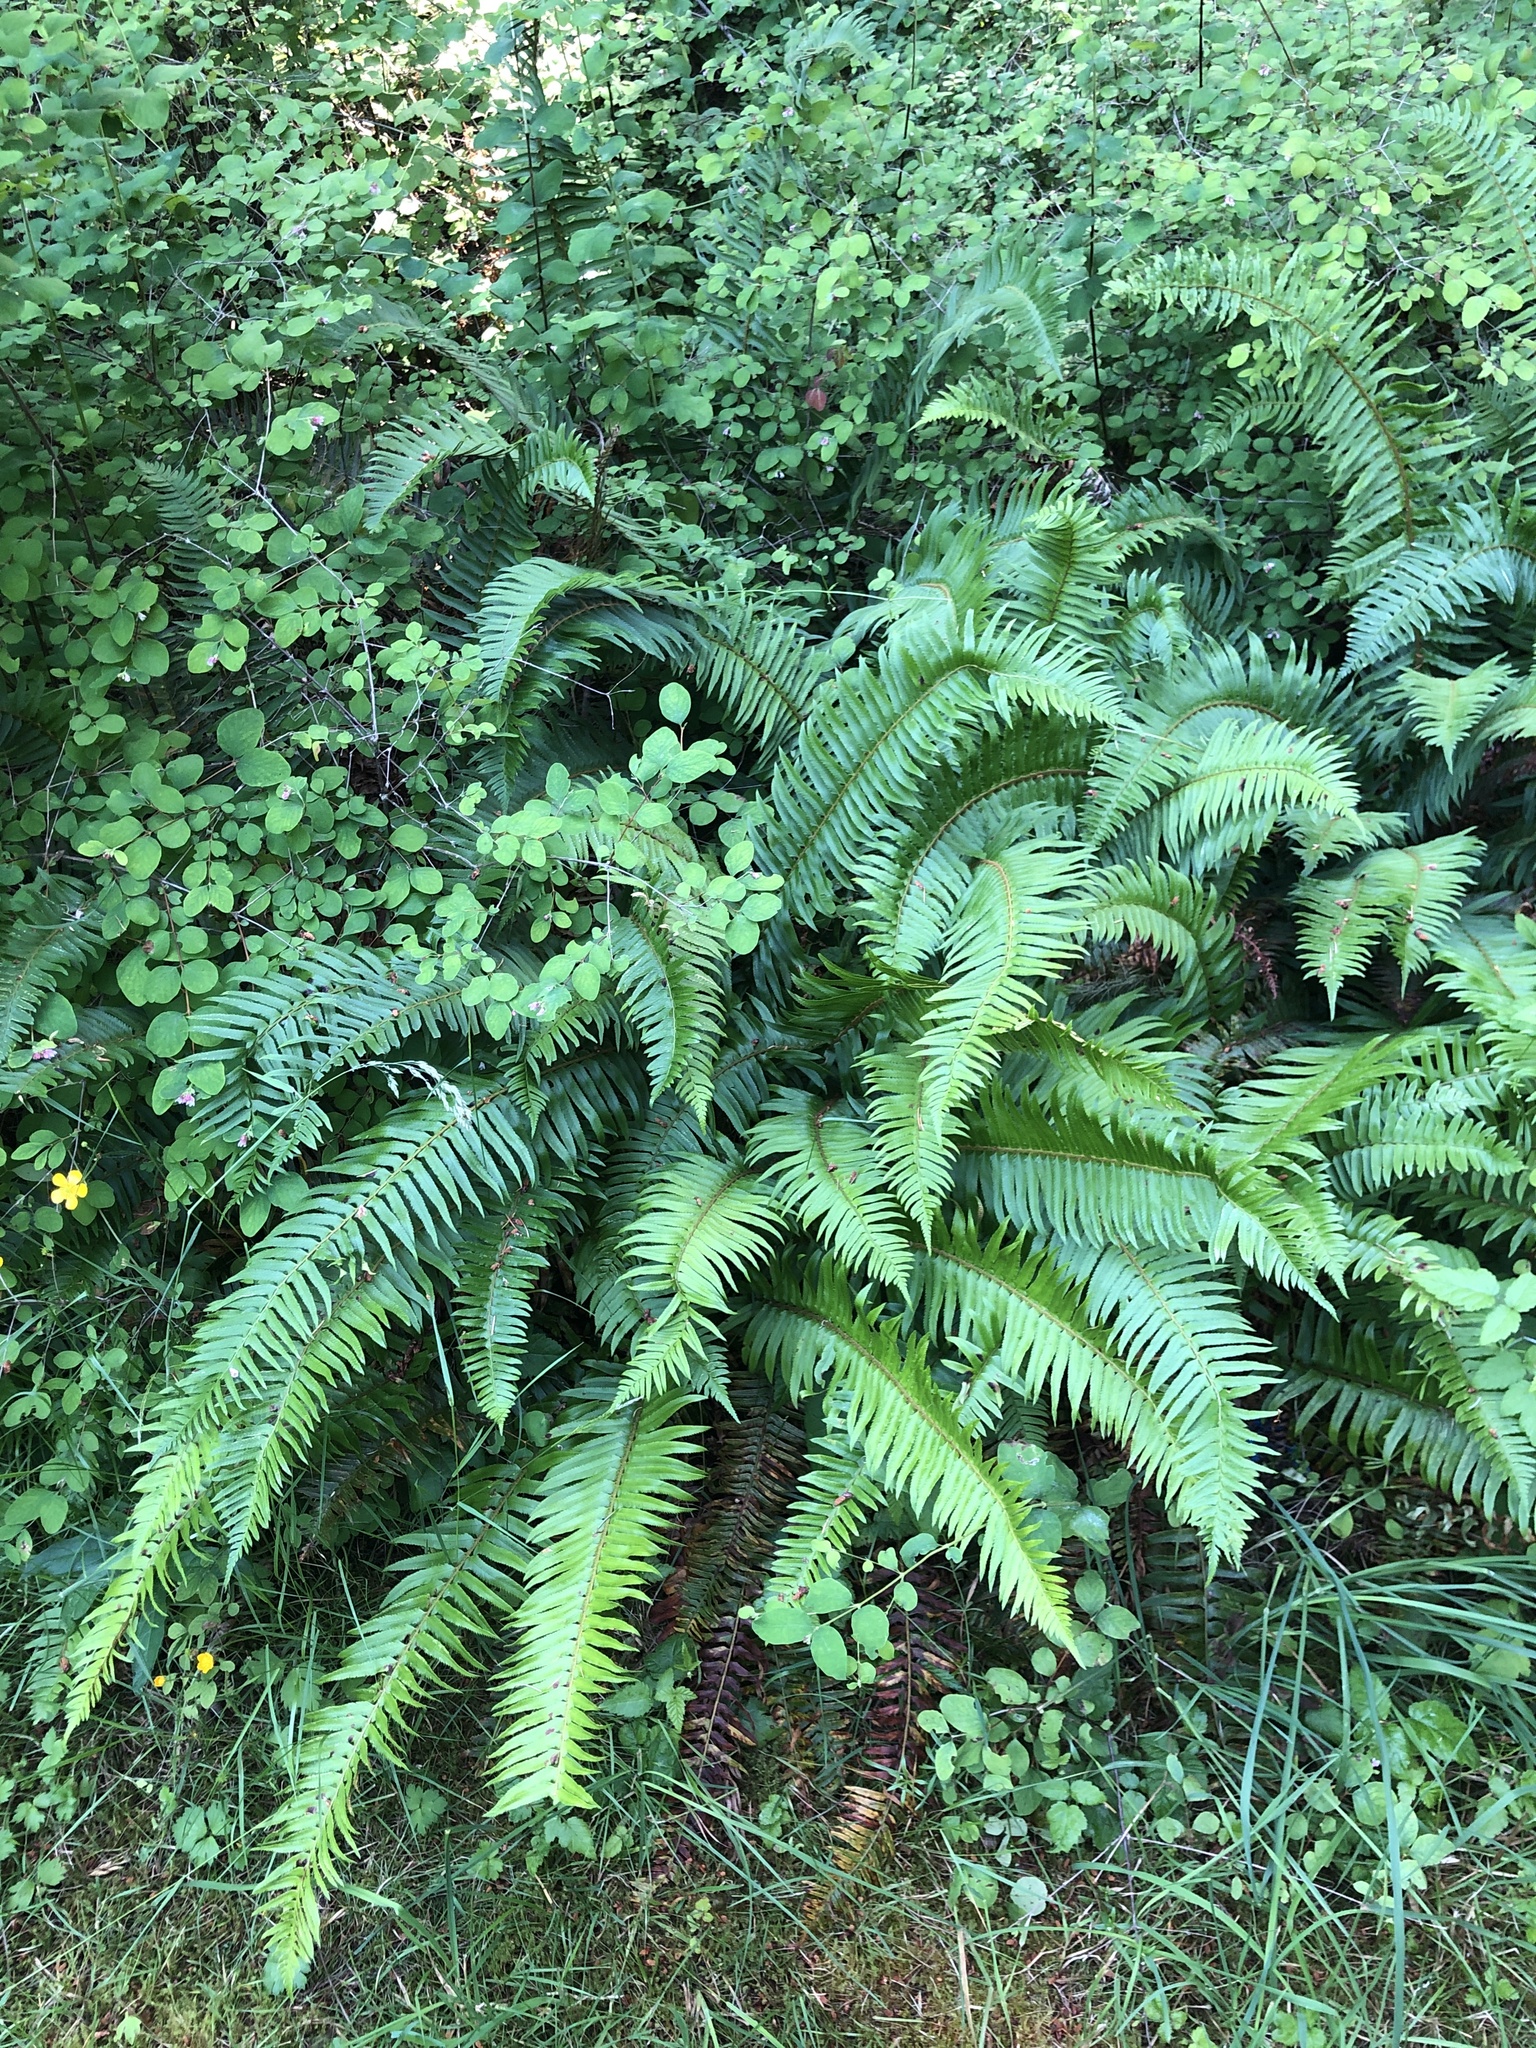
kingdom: Plantae
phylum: Tracheophyta
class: Polypodiopsida
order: Polypodiales
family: Dryopteridaceae
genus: Polystichum
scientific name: Polystichum munitum
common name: Western sword-fern
